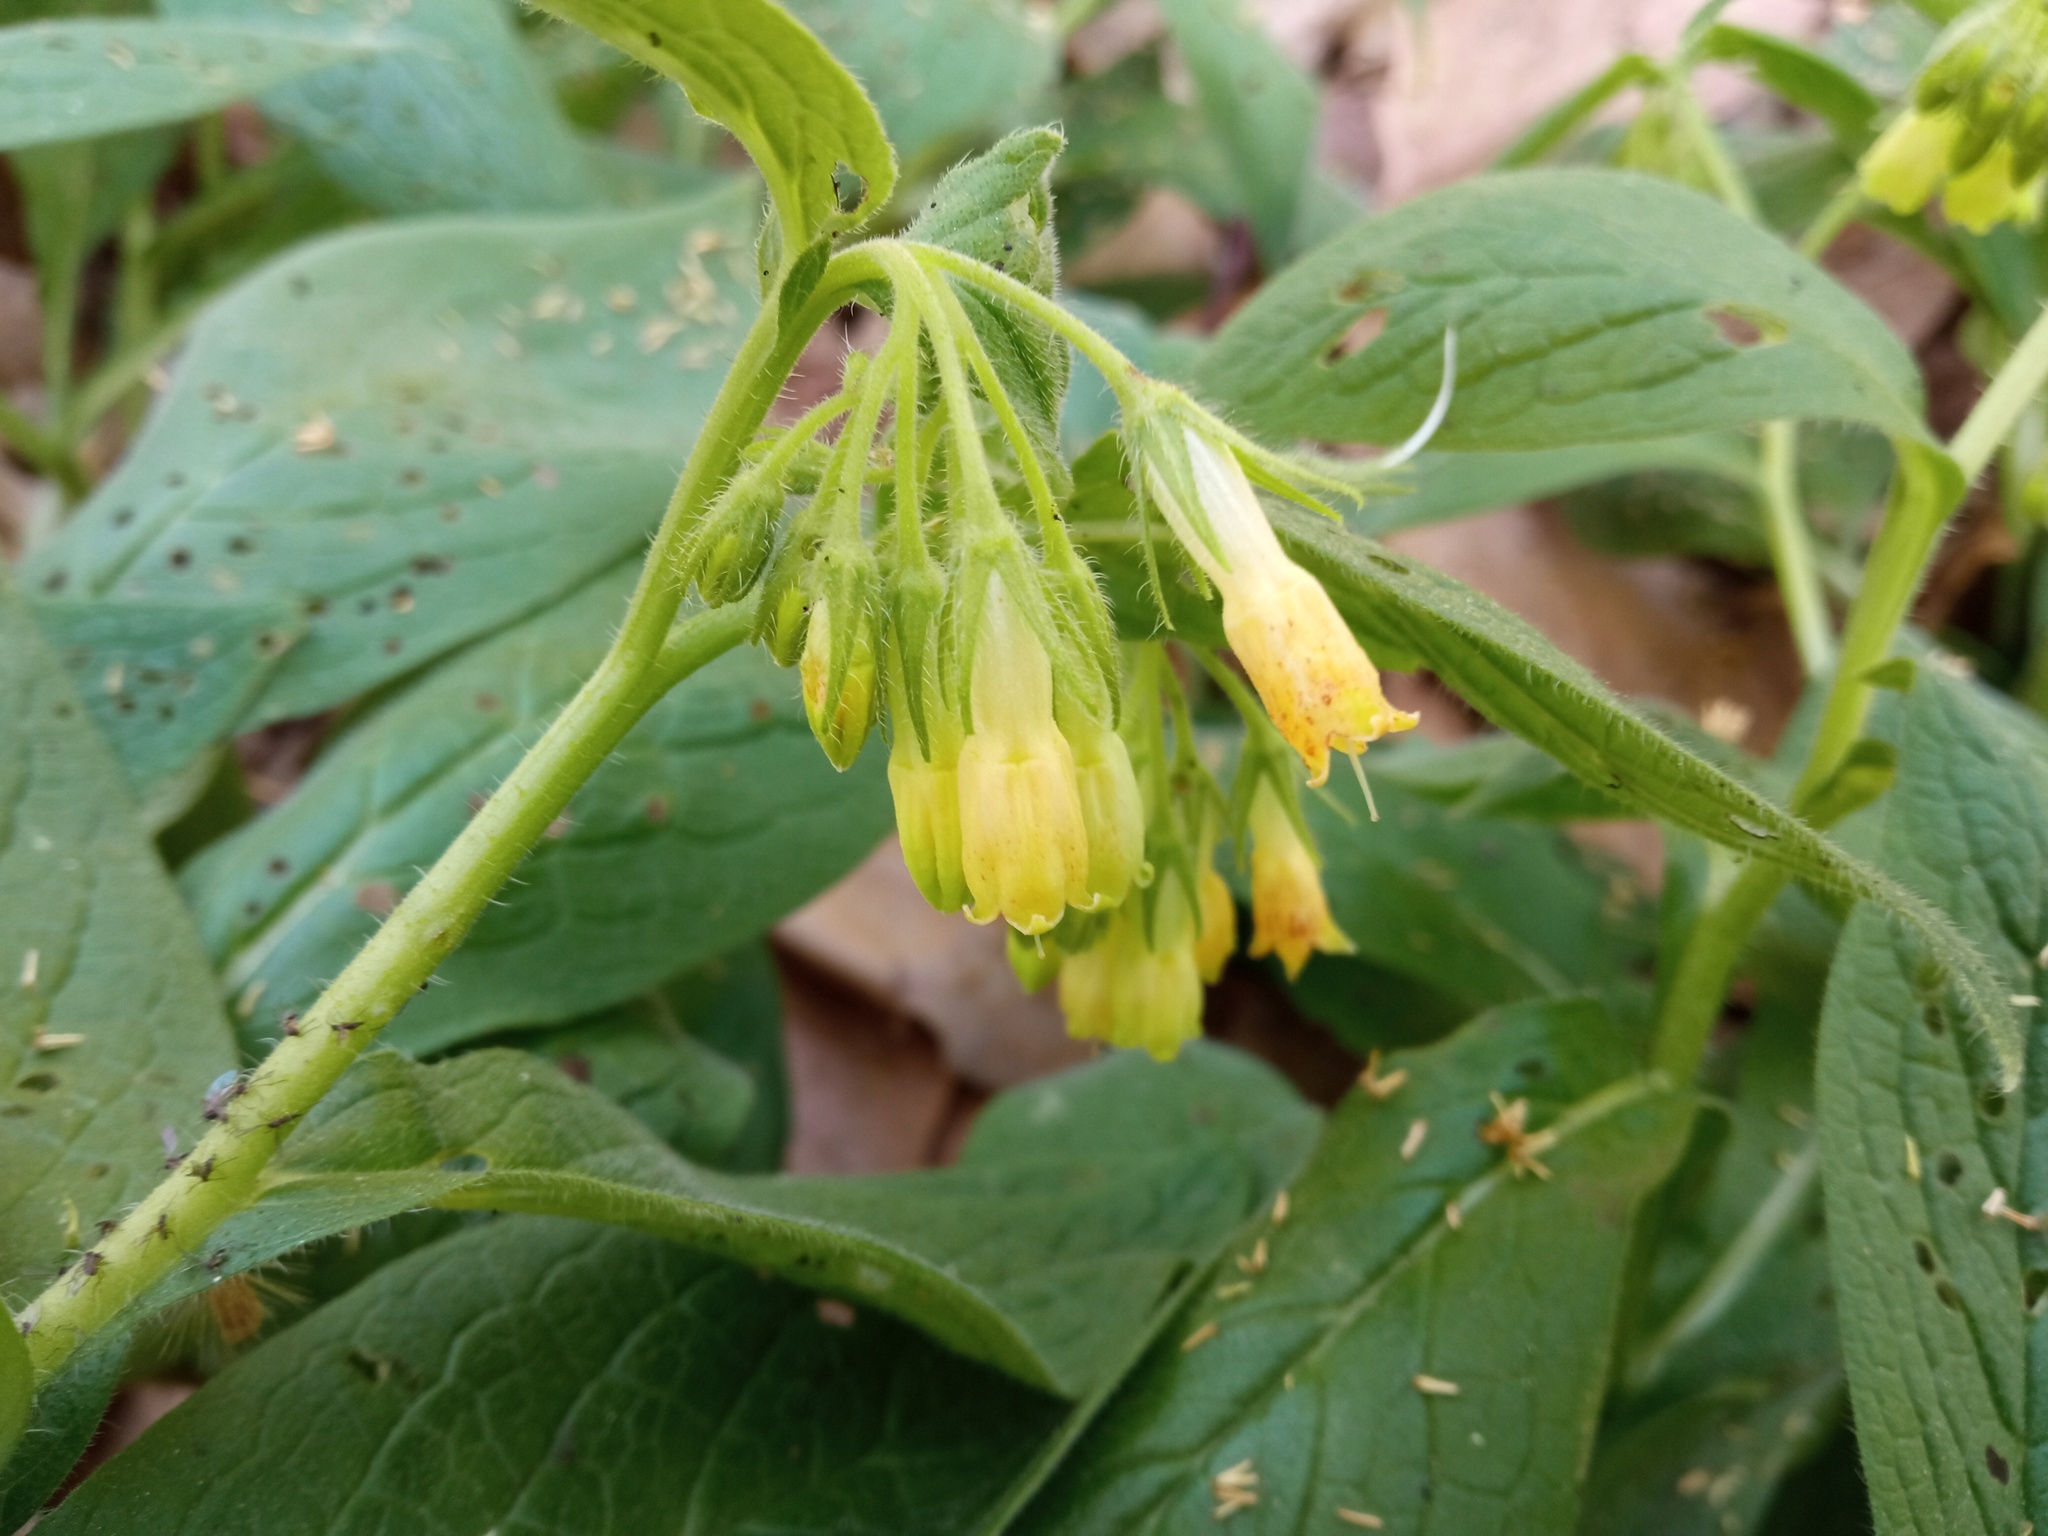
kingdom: Plantae
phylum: Tracheophyta
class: Magnoliopsida
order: Boraginales
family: Boraginaceae
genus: Symphytum
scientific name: Symphytum tuberosum
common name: Tuberous comfrey
